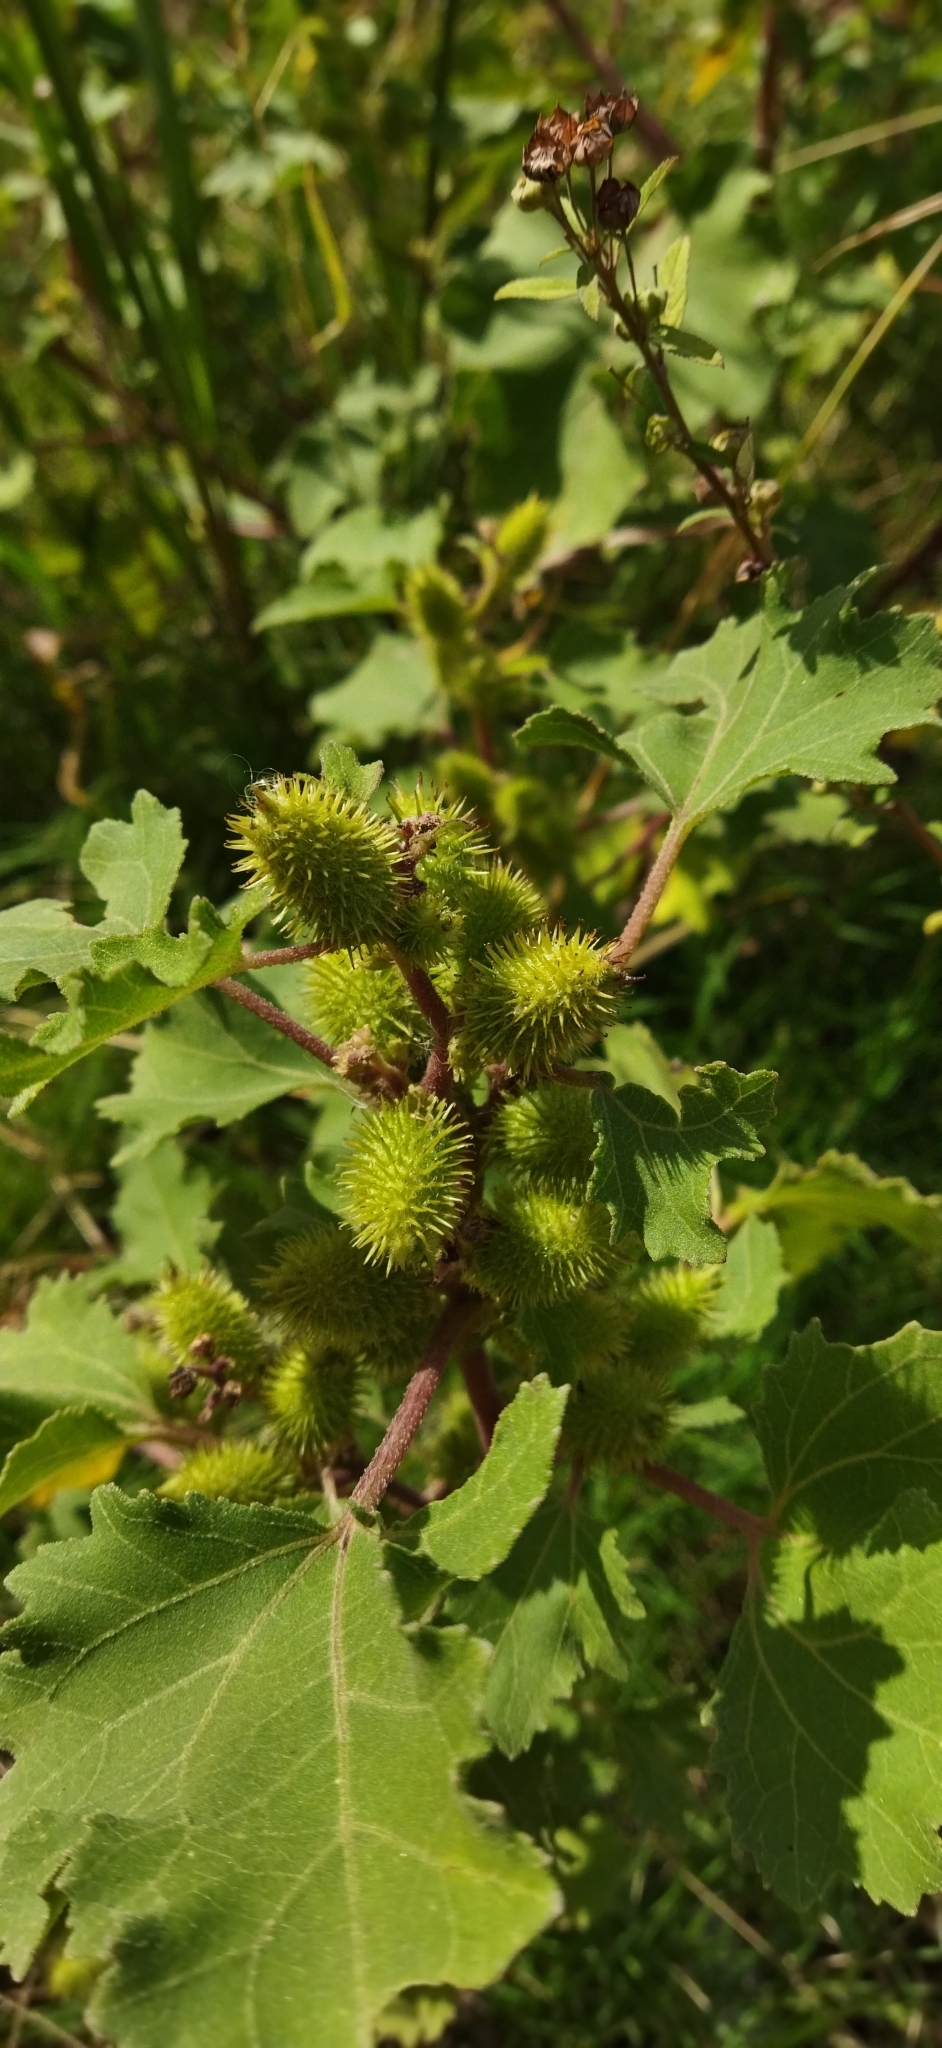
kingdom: Plantae
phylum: Tracheophyta
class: Magnoliopsida
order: Asterales
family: Asteraceae
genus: Xanthium
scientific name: Xanthium strumarium
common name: Rough cocklebur
